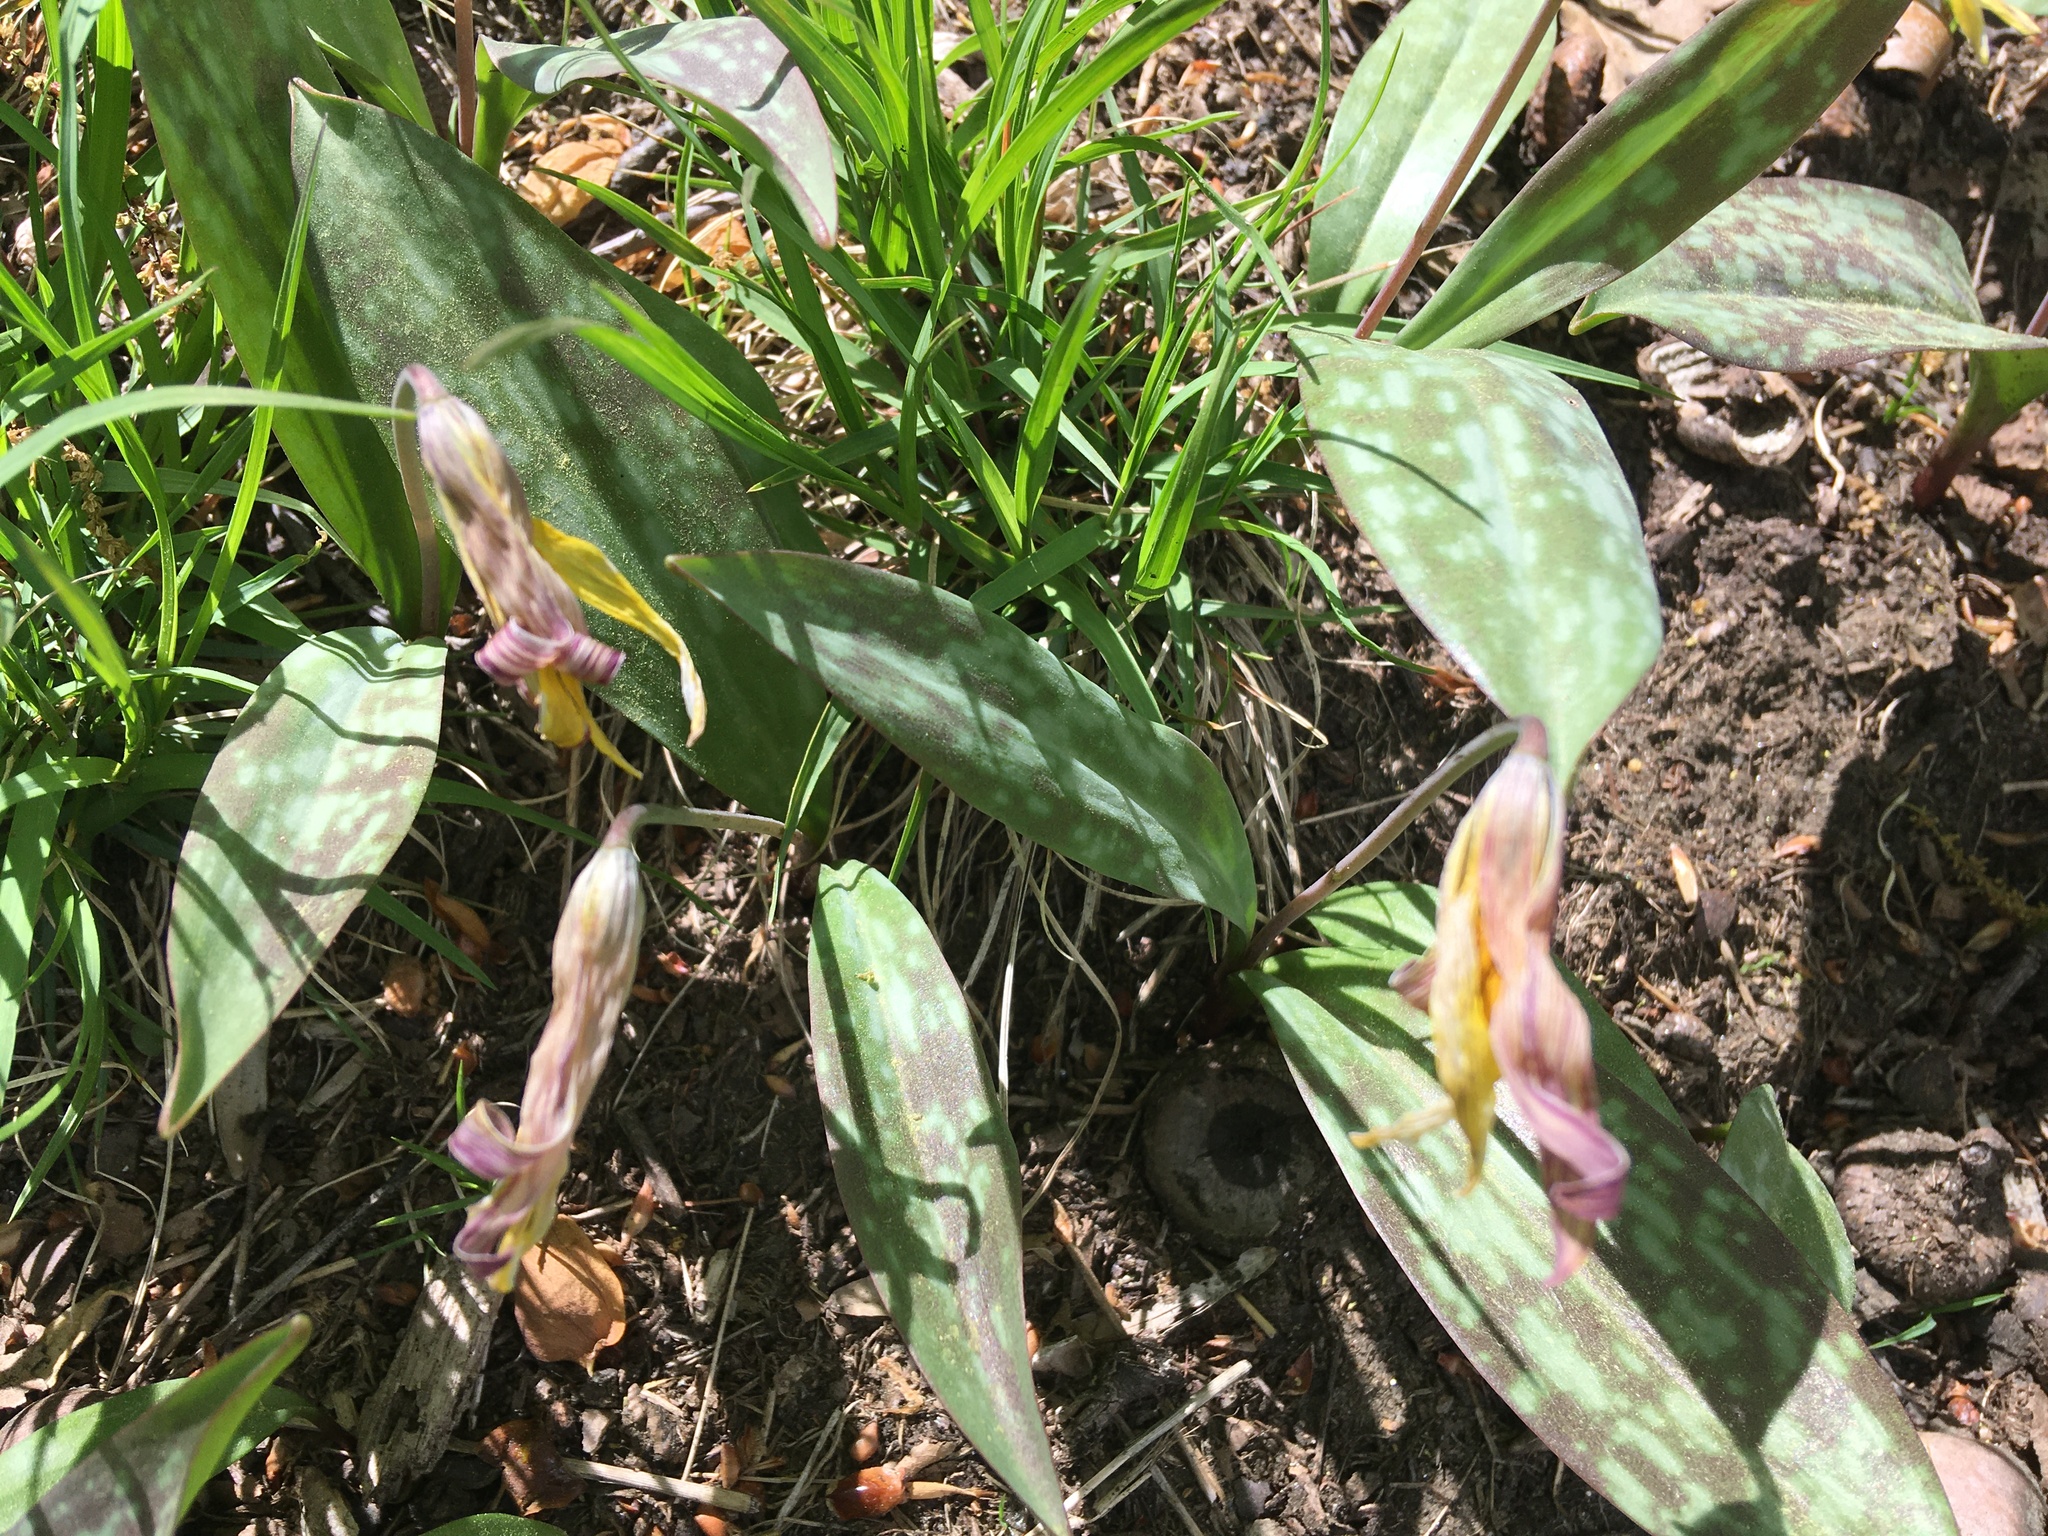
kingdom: Plantae
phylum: Tracheophyta
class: Liliopsida
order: Liliales
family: Liliaceae
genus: Erythronium
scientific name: Erythronium americanum
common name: Yellow adder's-tongue
